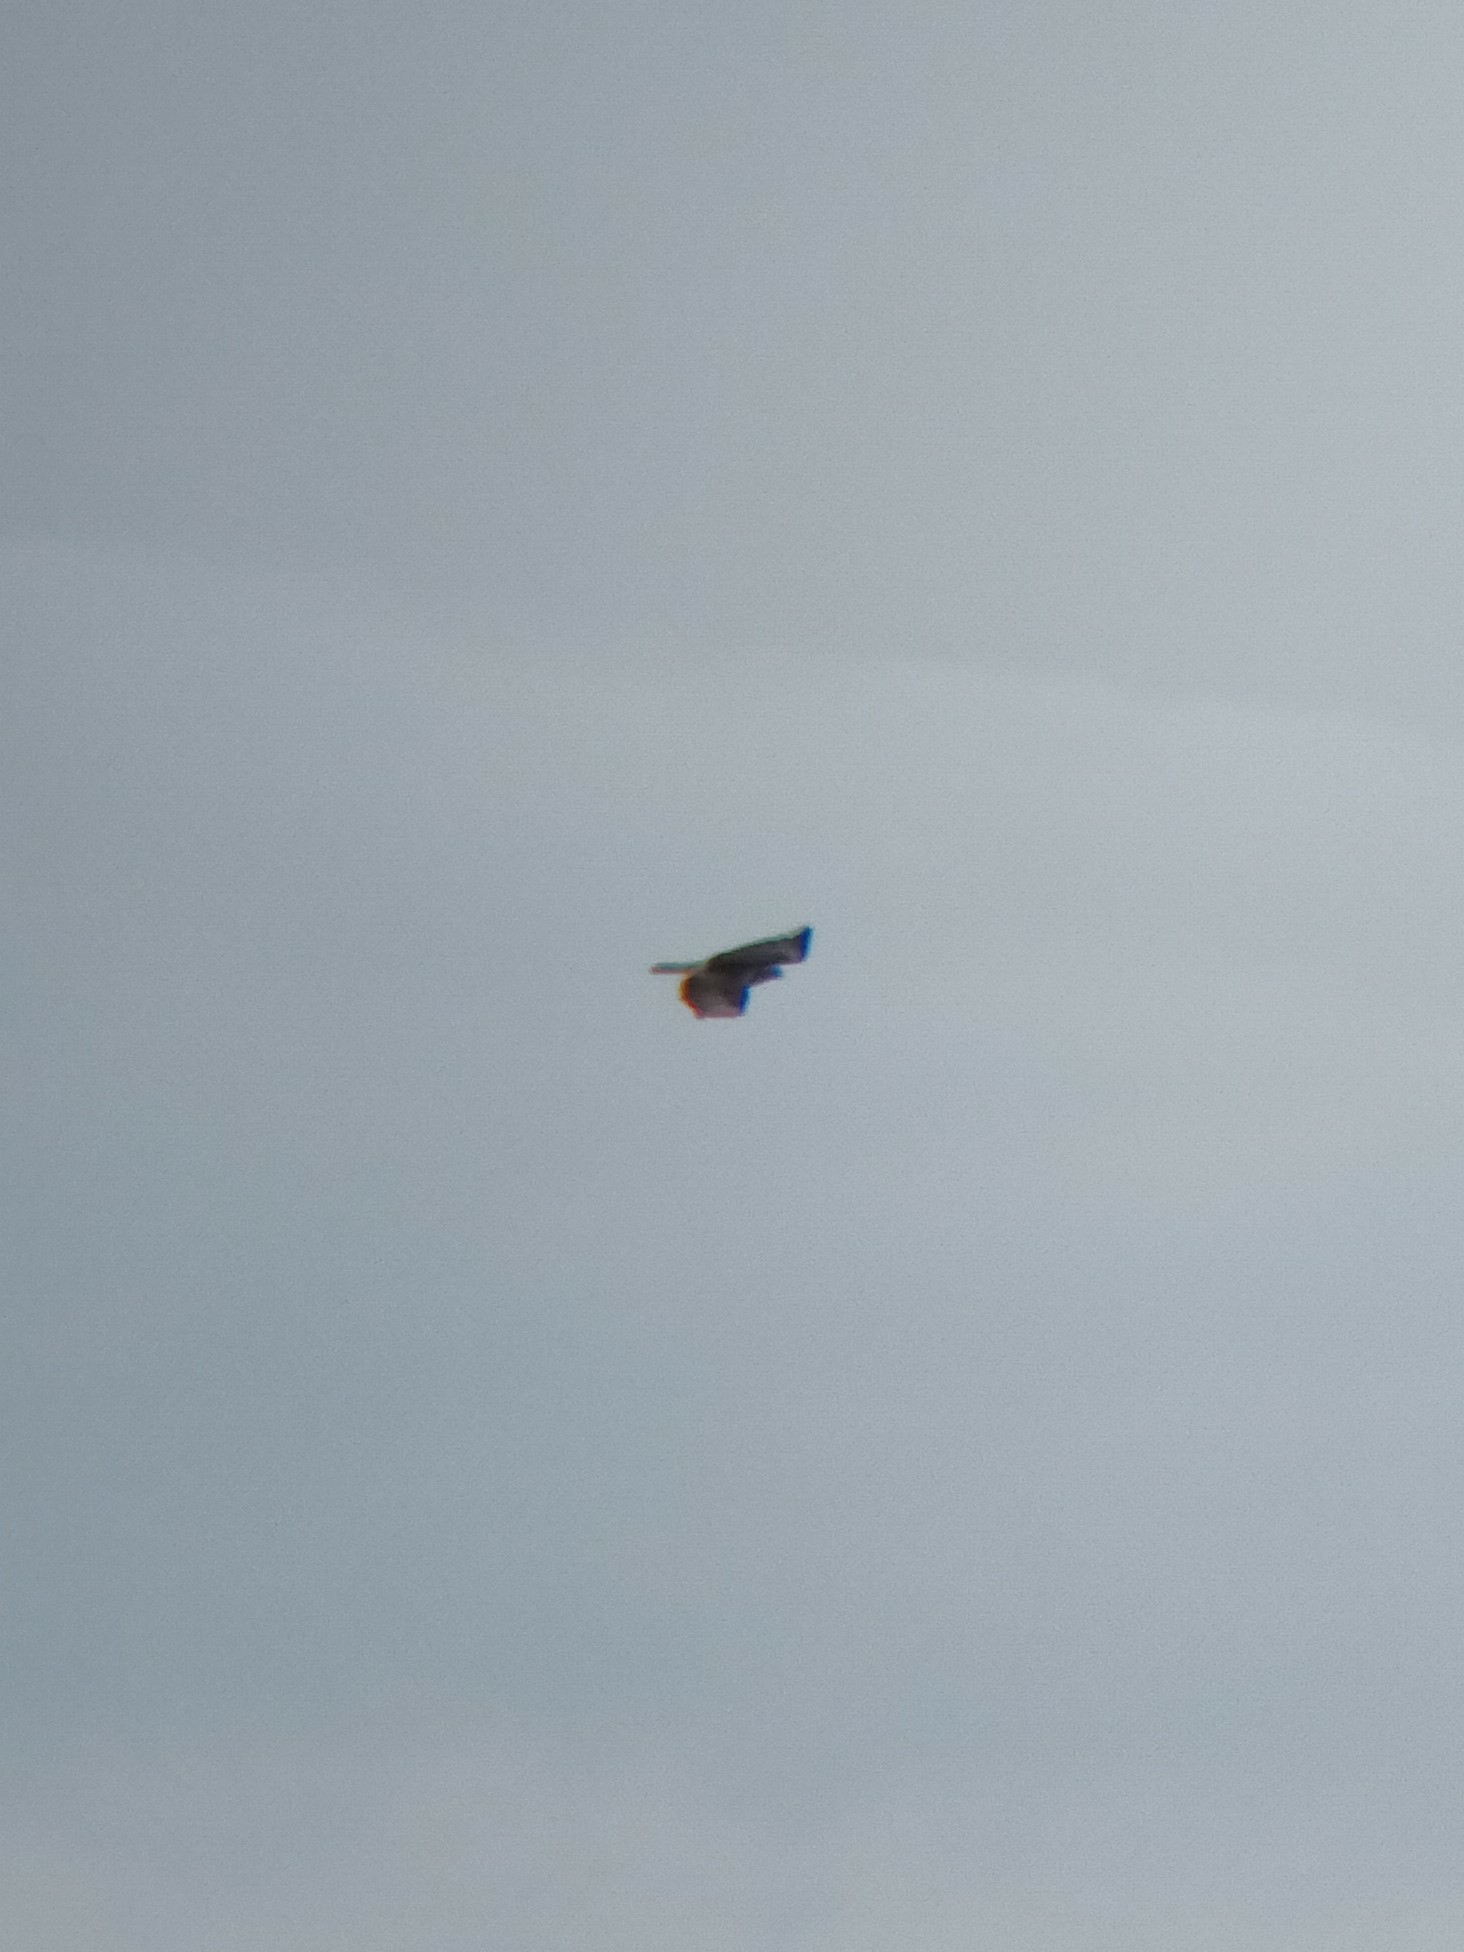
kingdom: Animalia
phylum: Chordata
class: Aves
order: Accipitriformes
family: Accipitridae
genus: Buteo
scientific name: Buteo buteo
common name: Common buzzard
